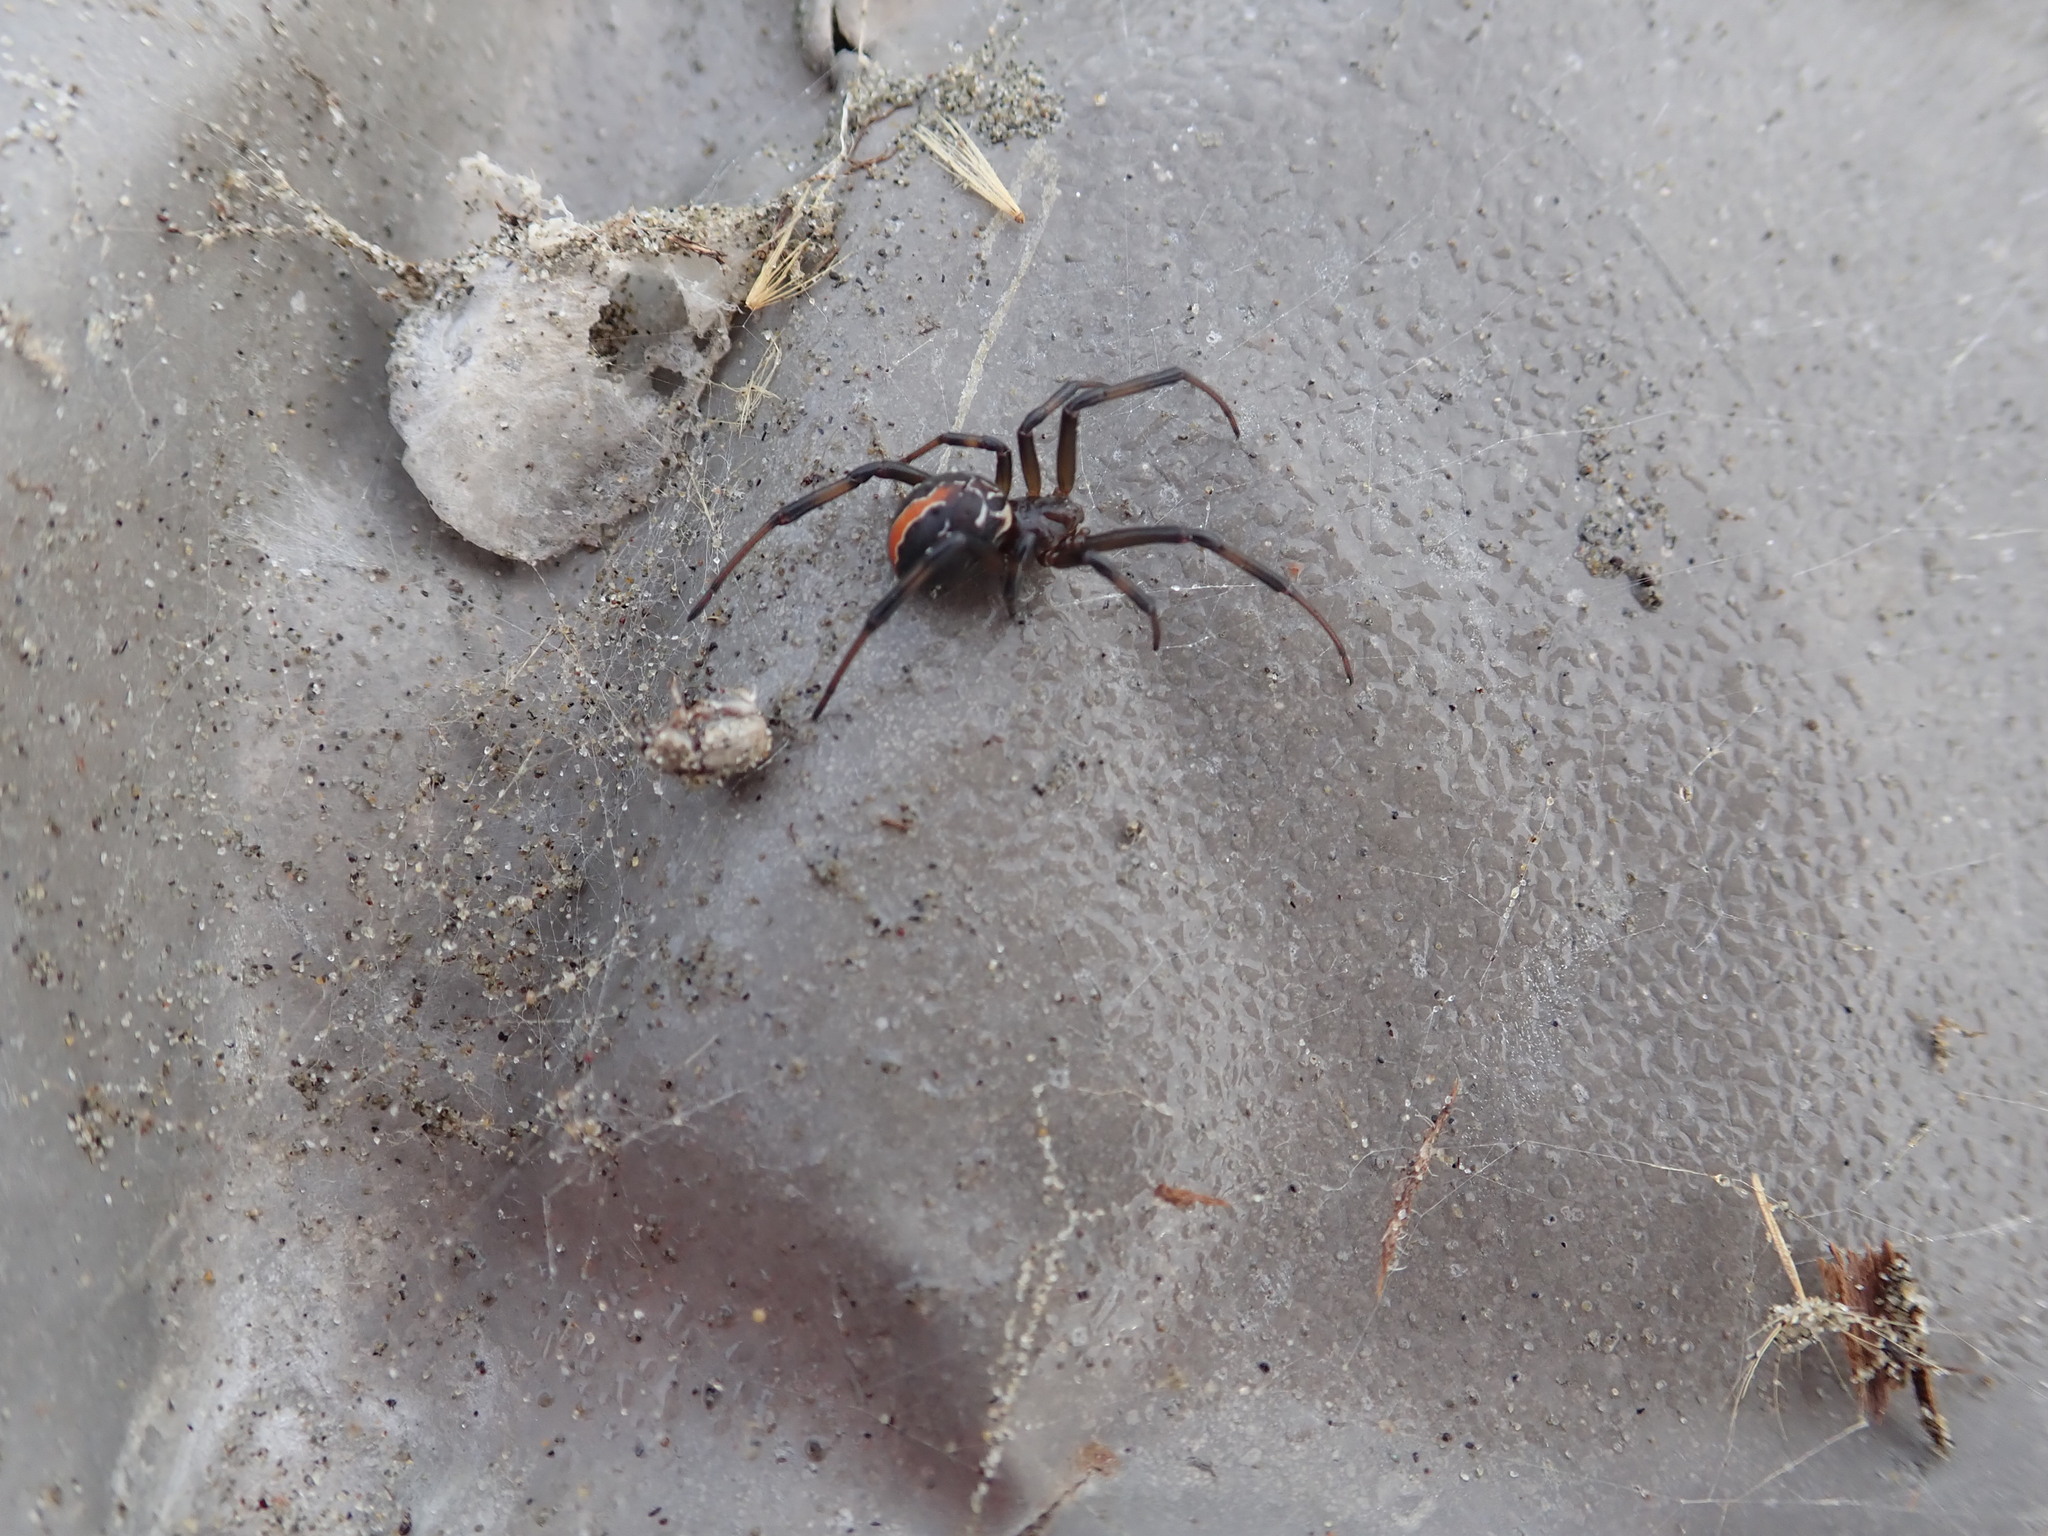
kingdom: Animalia
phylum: Arthropoda
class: Arachnida
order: Araneae
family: Theridiidae
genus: Latrodectus
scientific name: Latrodectus katipo
